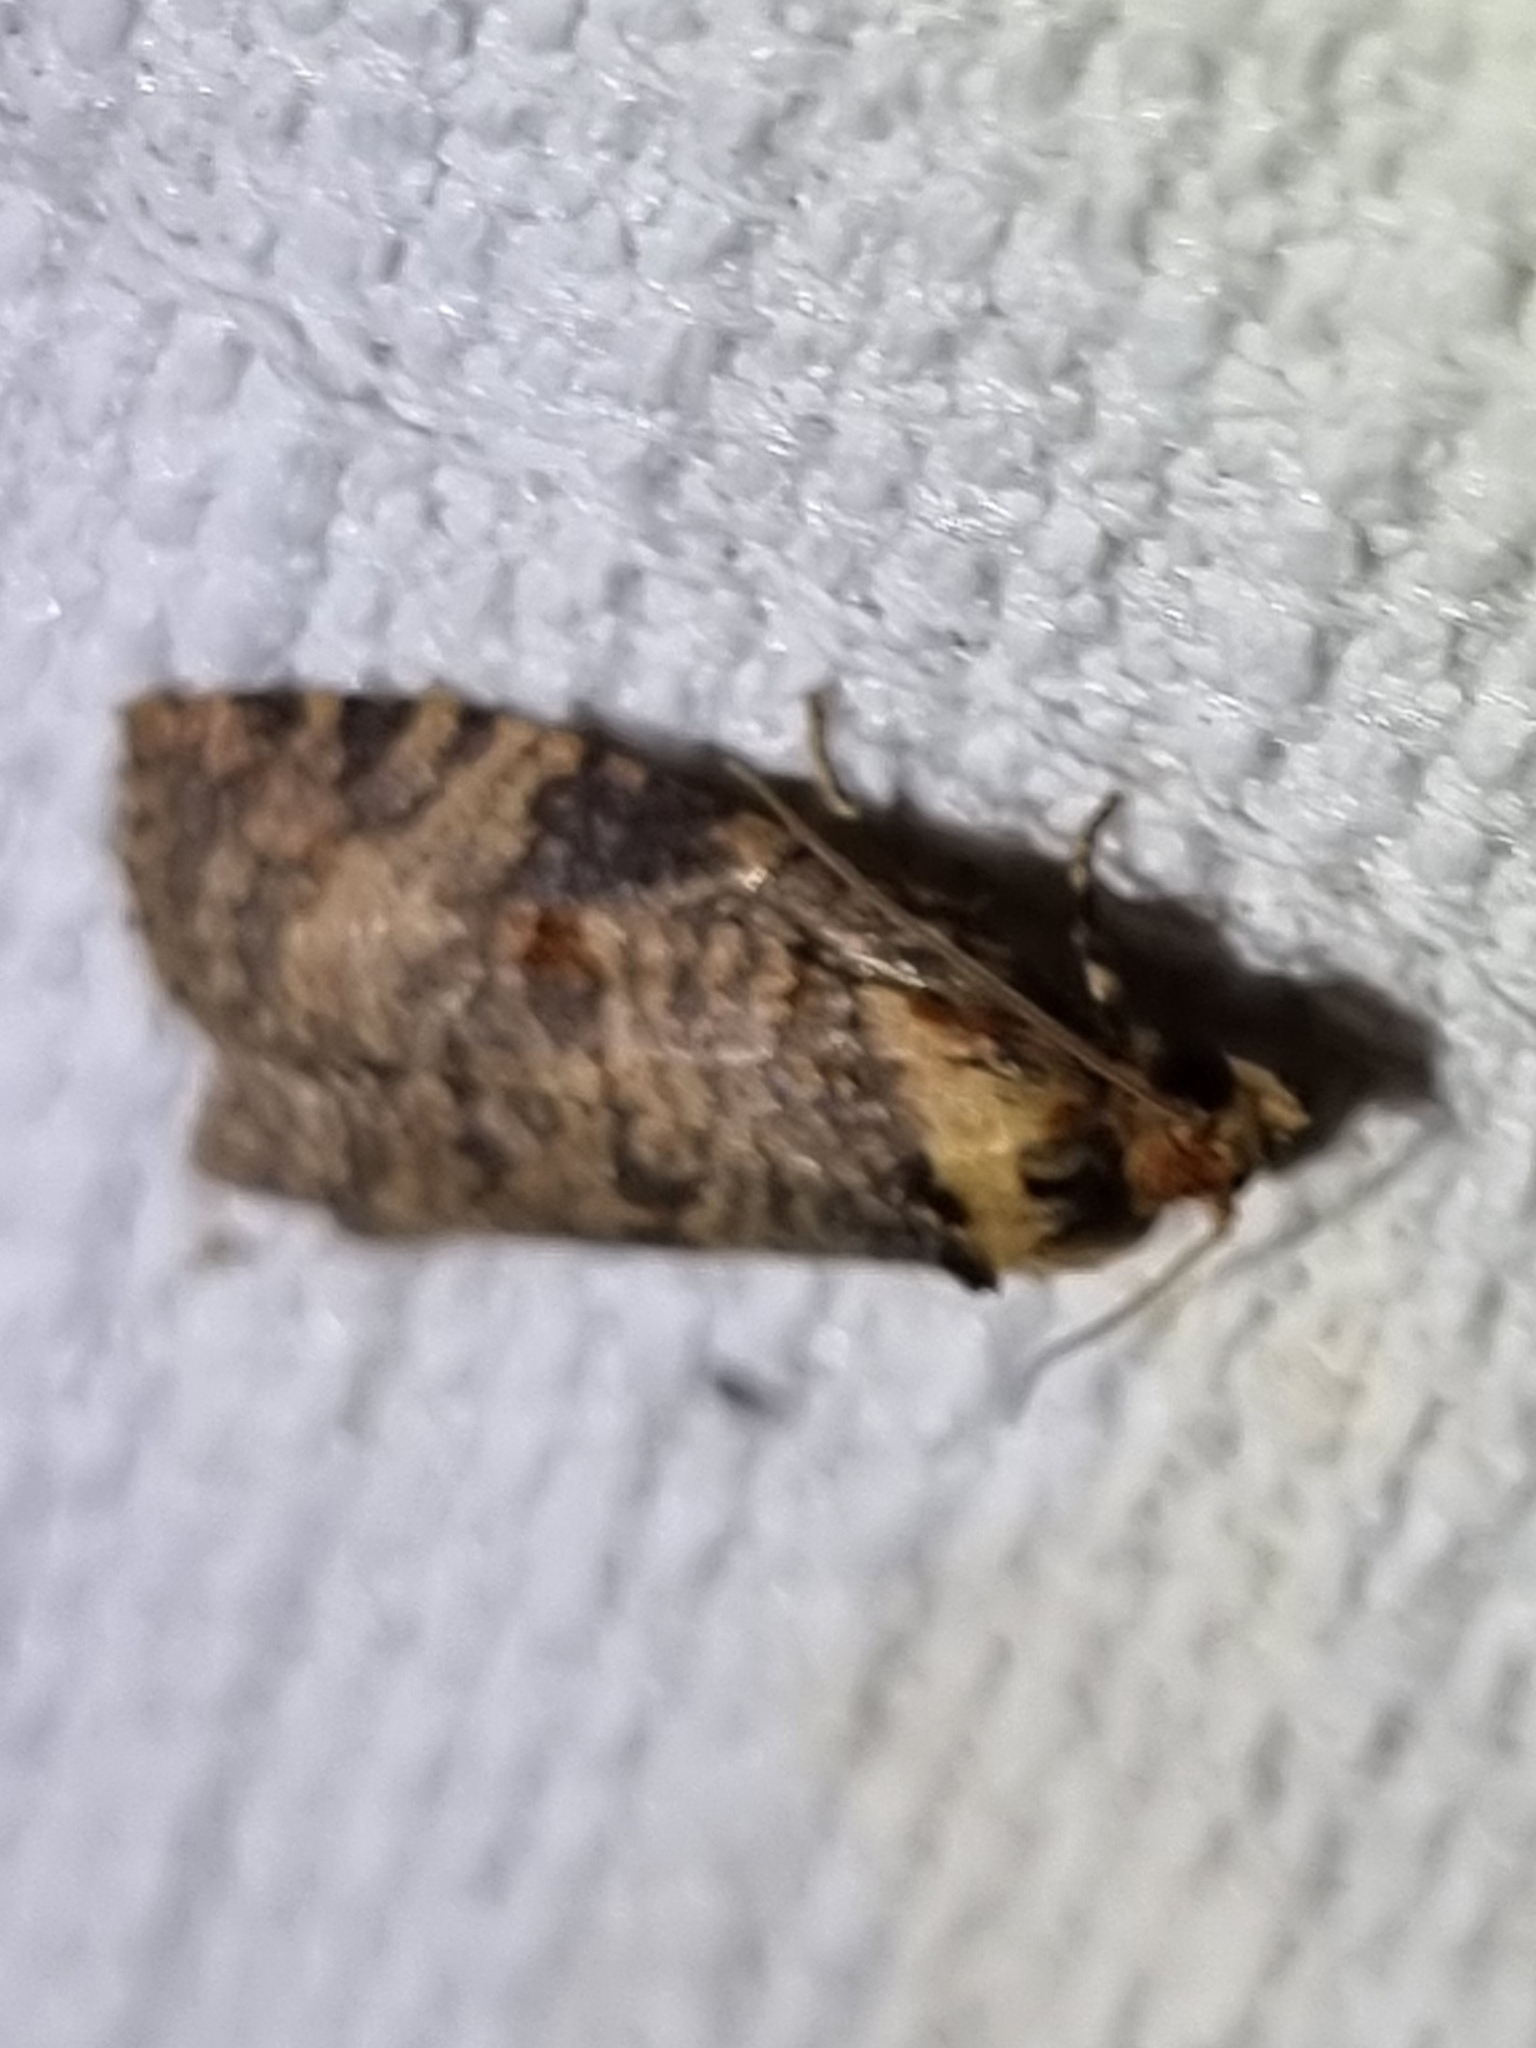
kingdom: Animalia
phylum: Arthropoda
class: Insecta
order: Lepidoptera
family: Tortricidae
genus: Cryptoptila
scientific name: Cryptoptila australana
